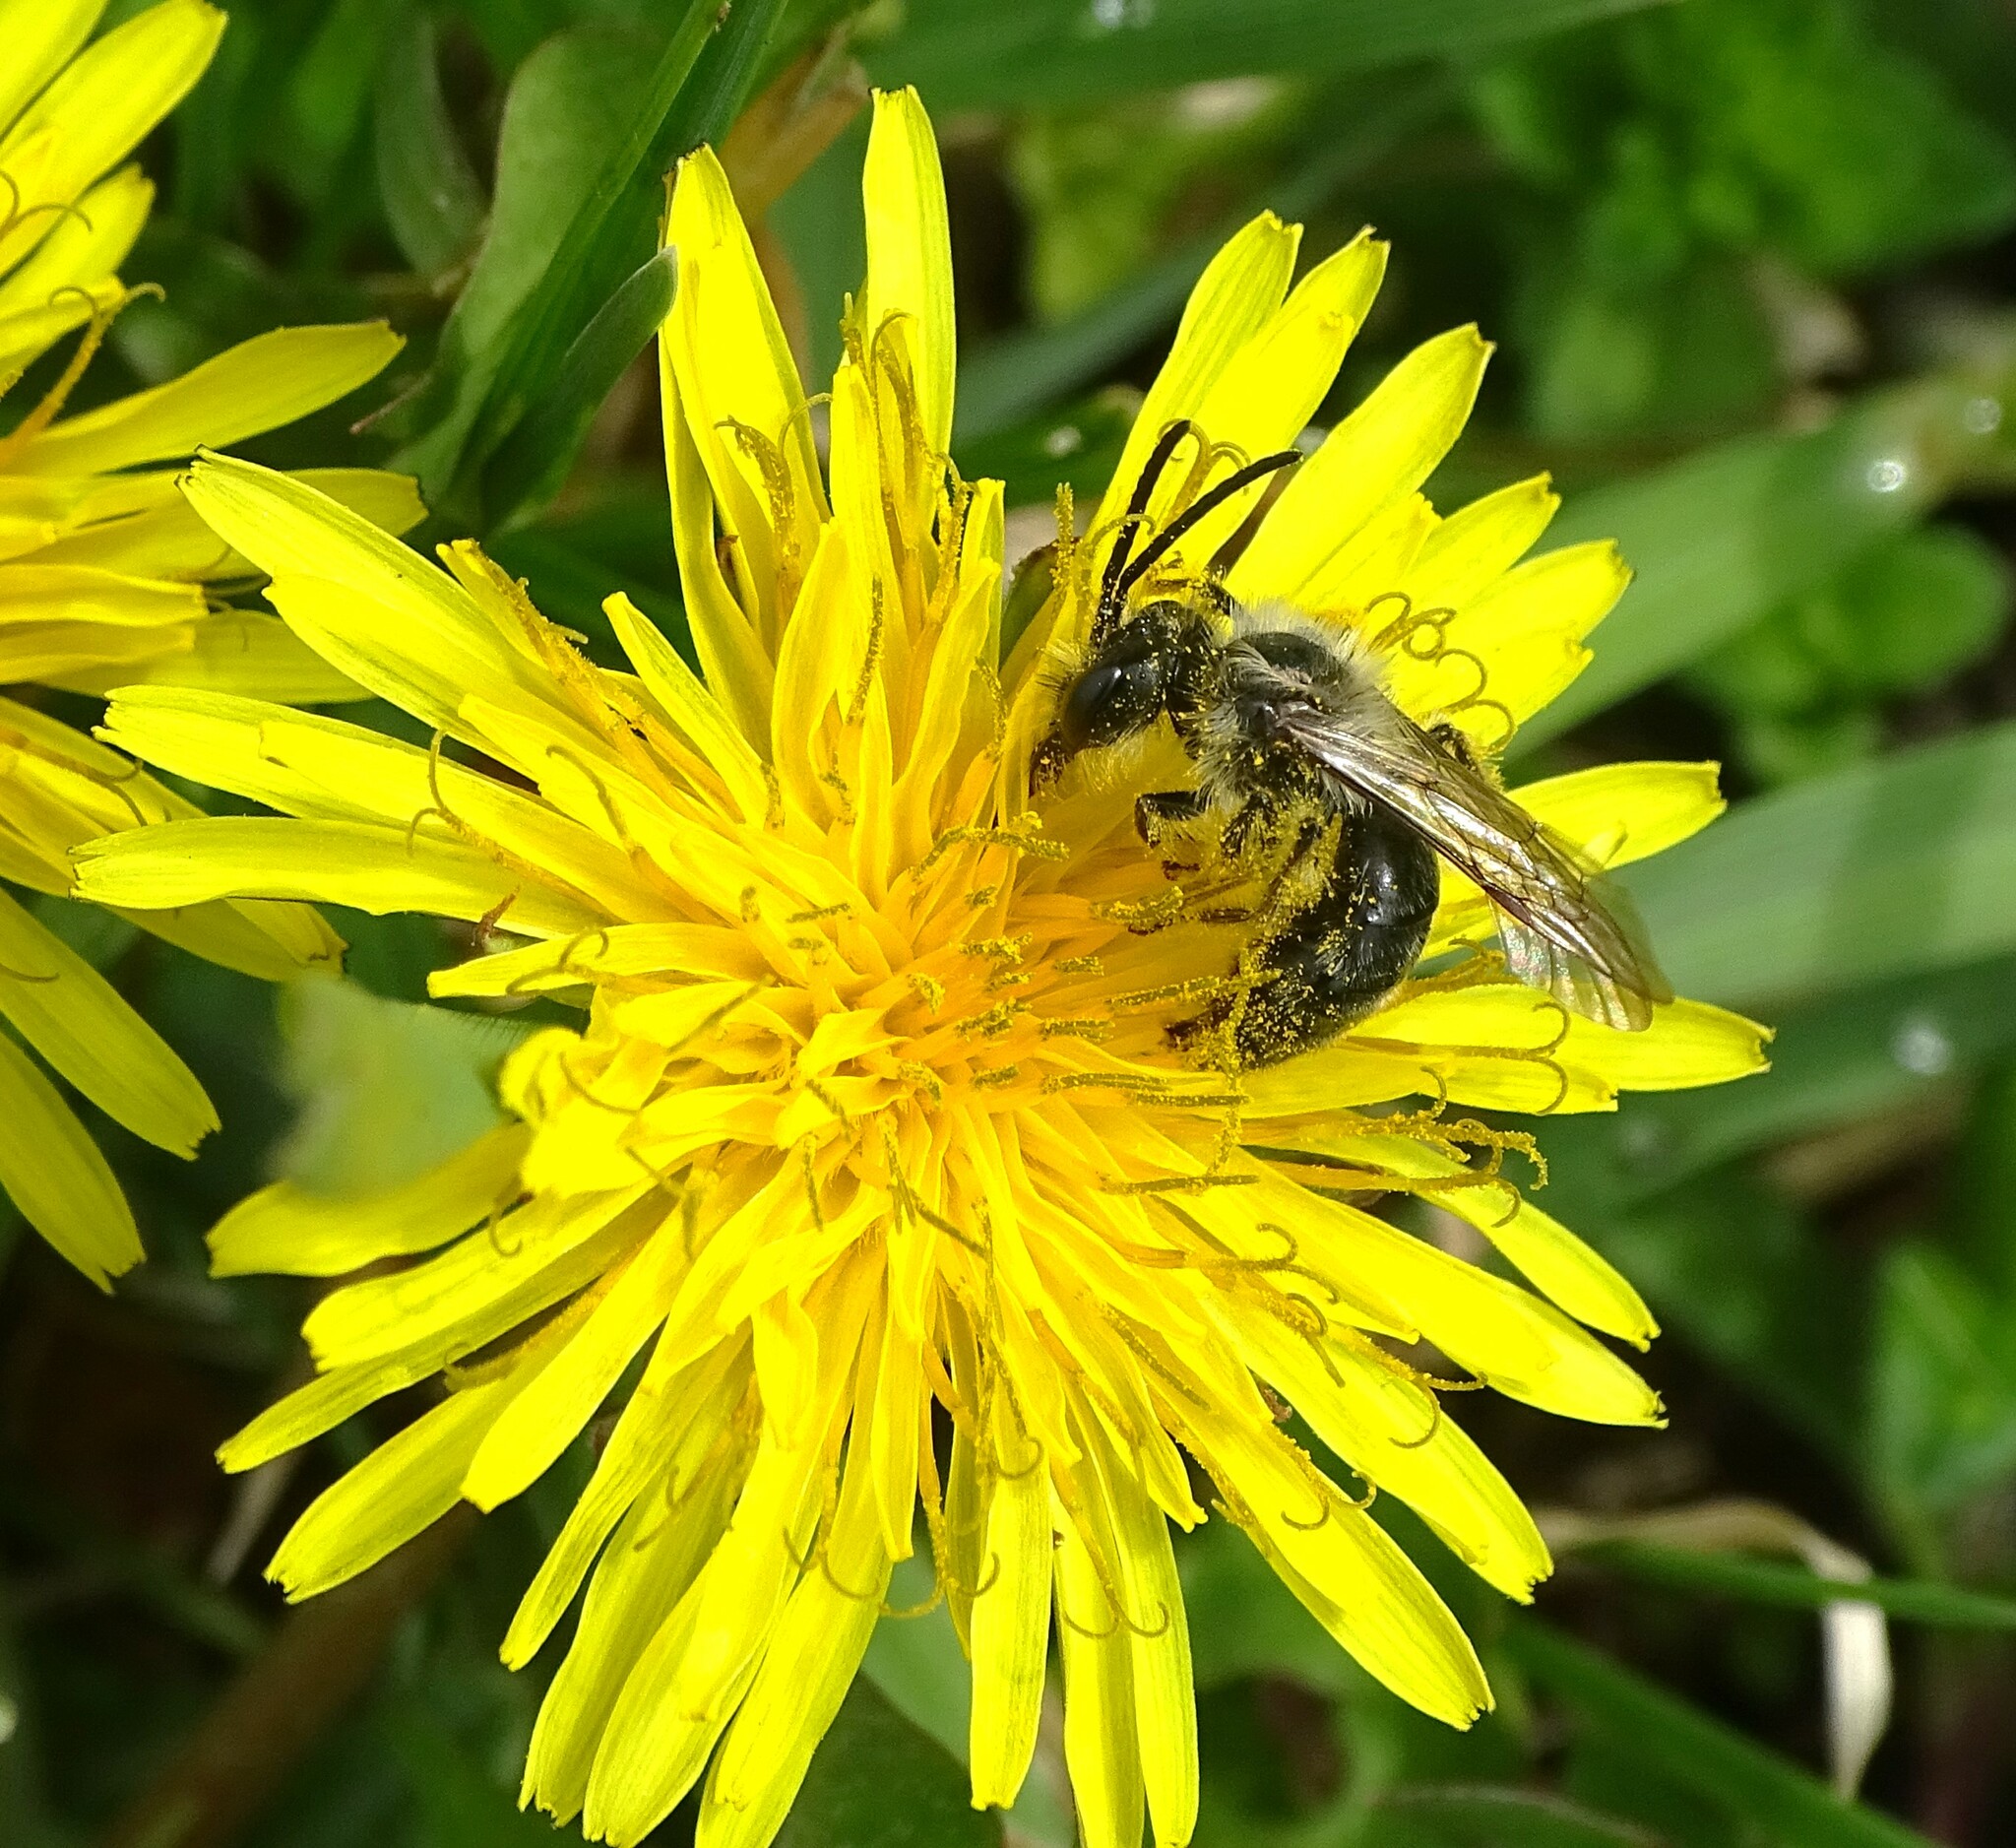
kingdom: Animalia
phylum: Arthropoda
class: Insecta
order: Hymenoptera
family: Andrenidae
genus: Andrena
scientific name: Andrena carlini
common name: Carlin's mining bee
